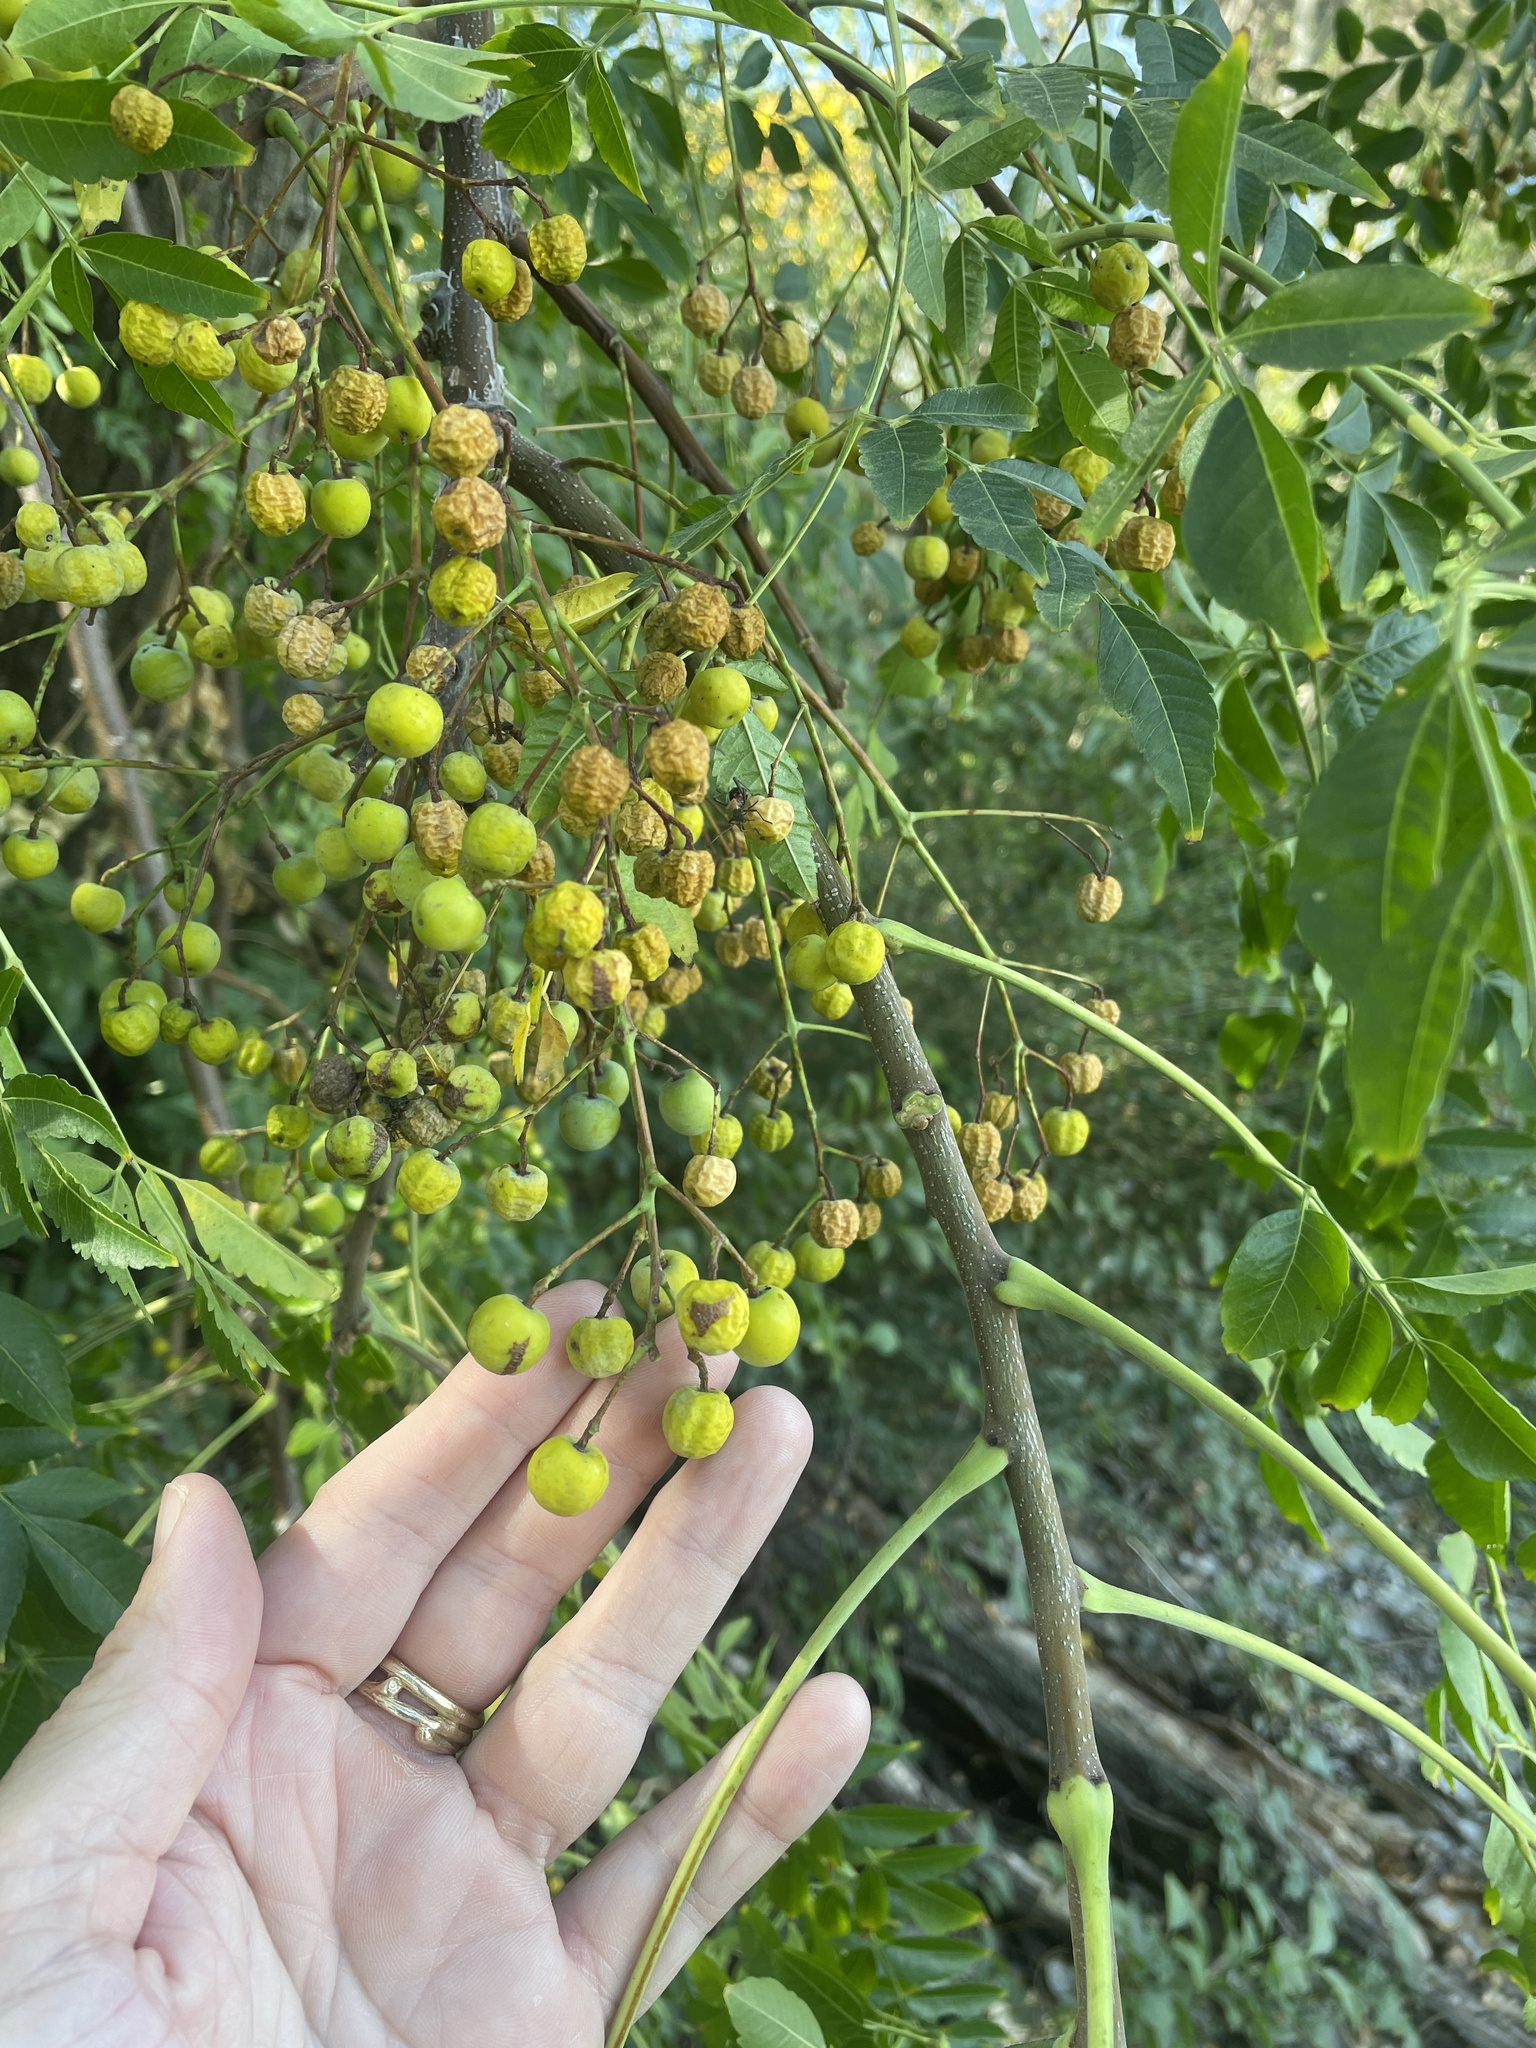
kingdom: Plantae
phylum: Tracheophyta
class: Magnoliopsida
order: Sapindales
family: Meliaceae
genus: Melia
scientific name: Melia azedarach
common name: Chinaberrytree
